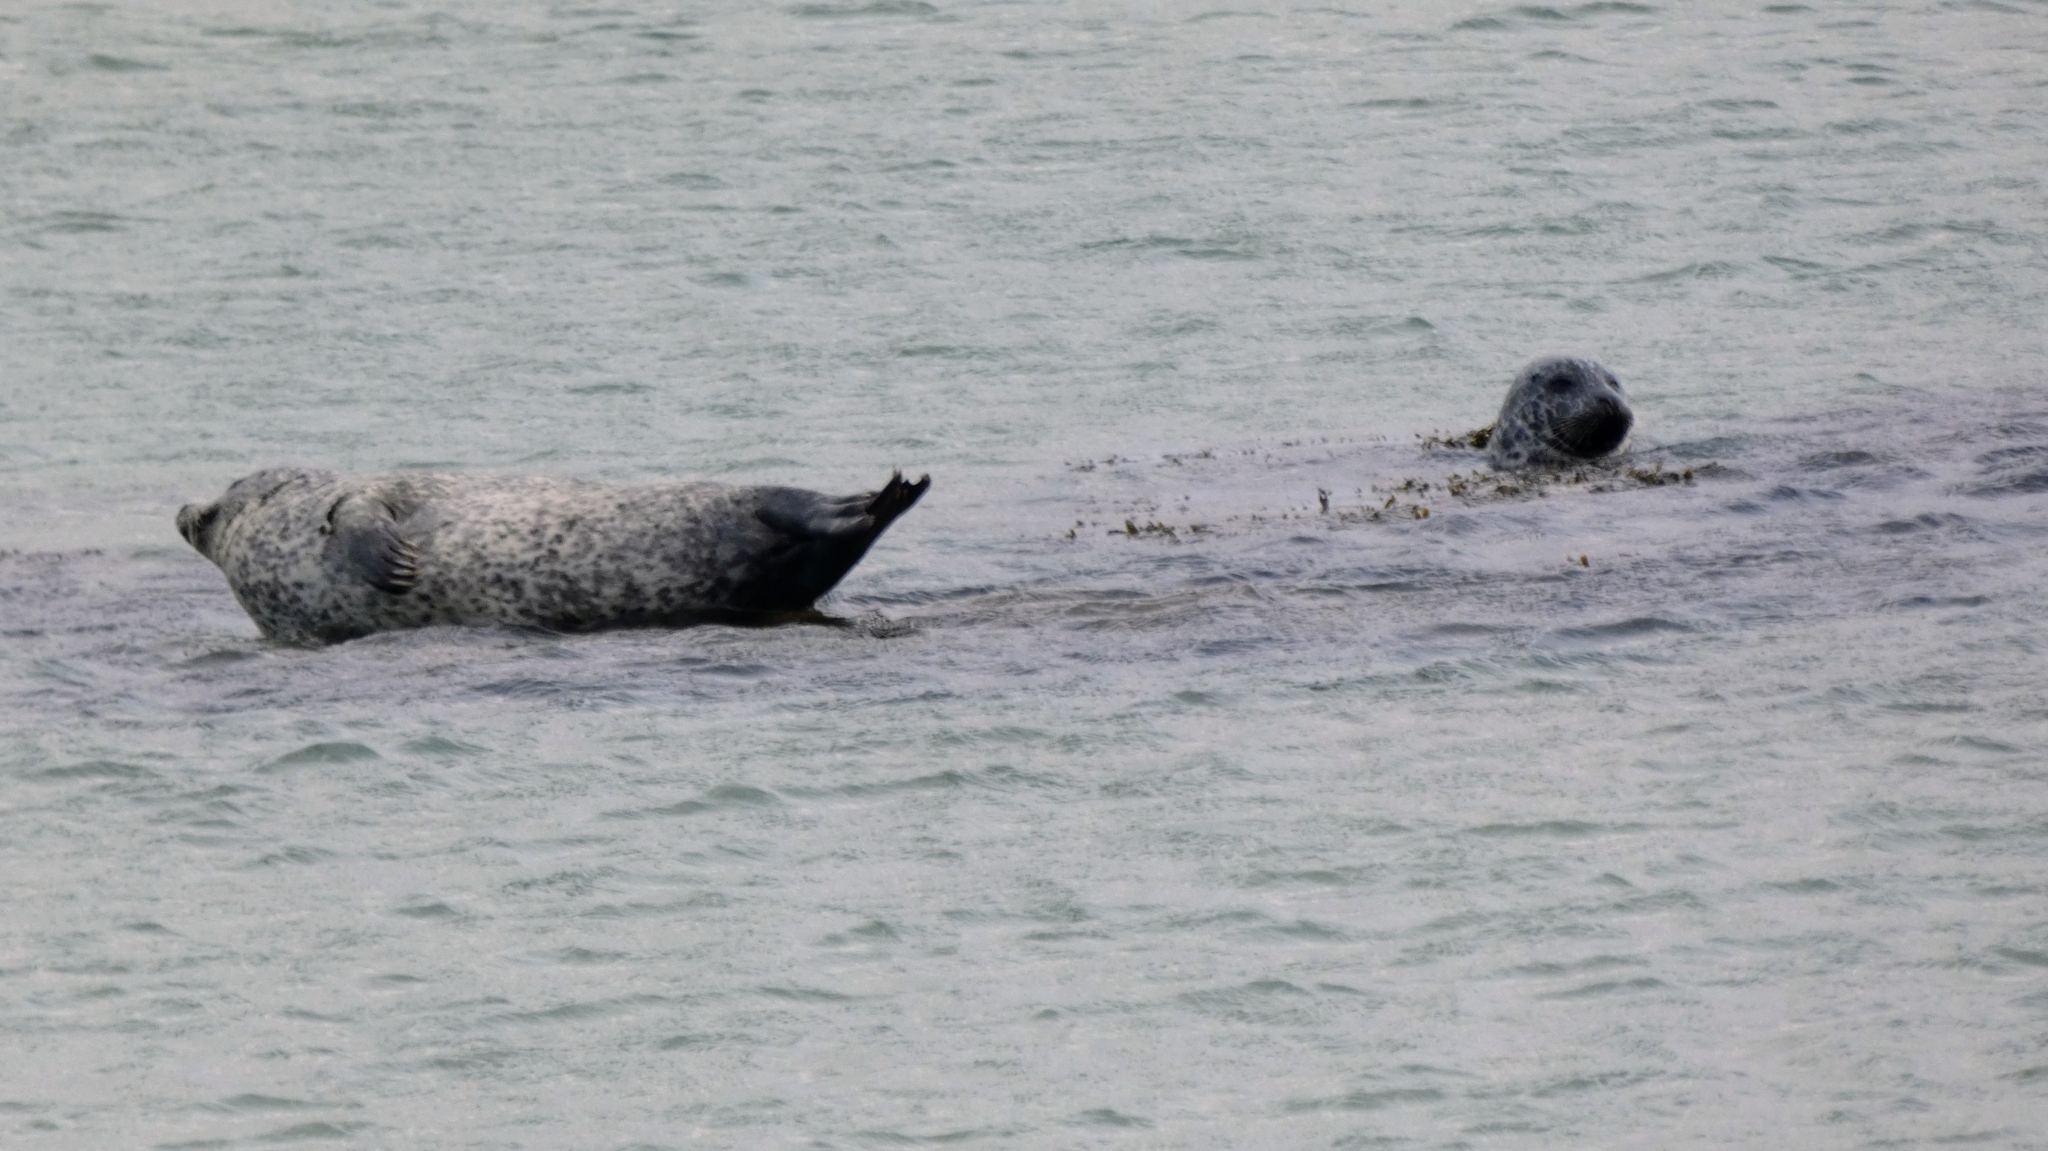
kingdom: Animalia
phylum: Chordata
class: Mammalia
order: Carnivora
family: Phocidae
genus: Phoca
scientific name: Phoca vitulina
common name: Harbor seal
